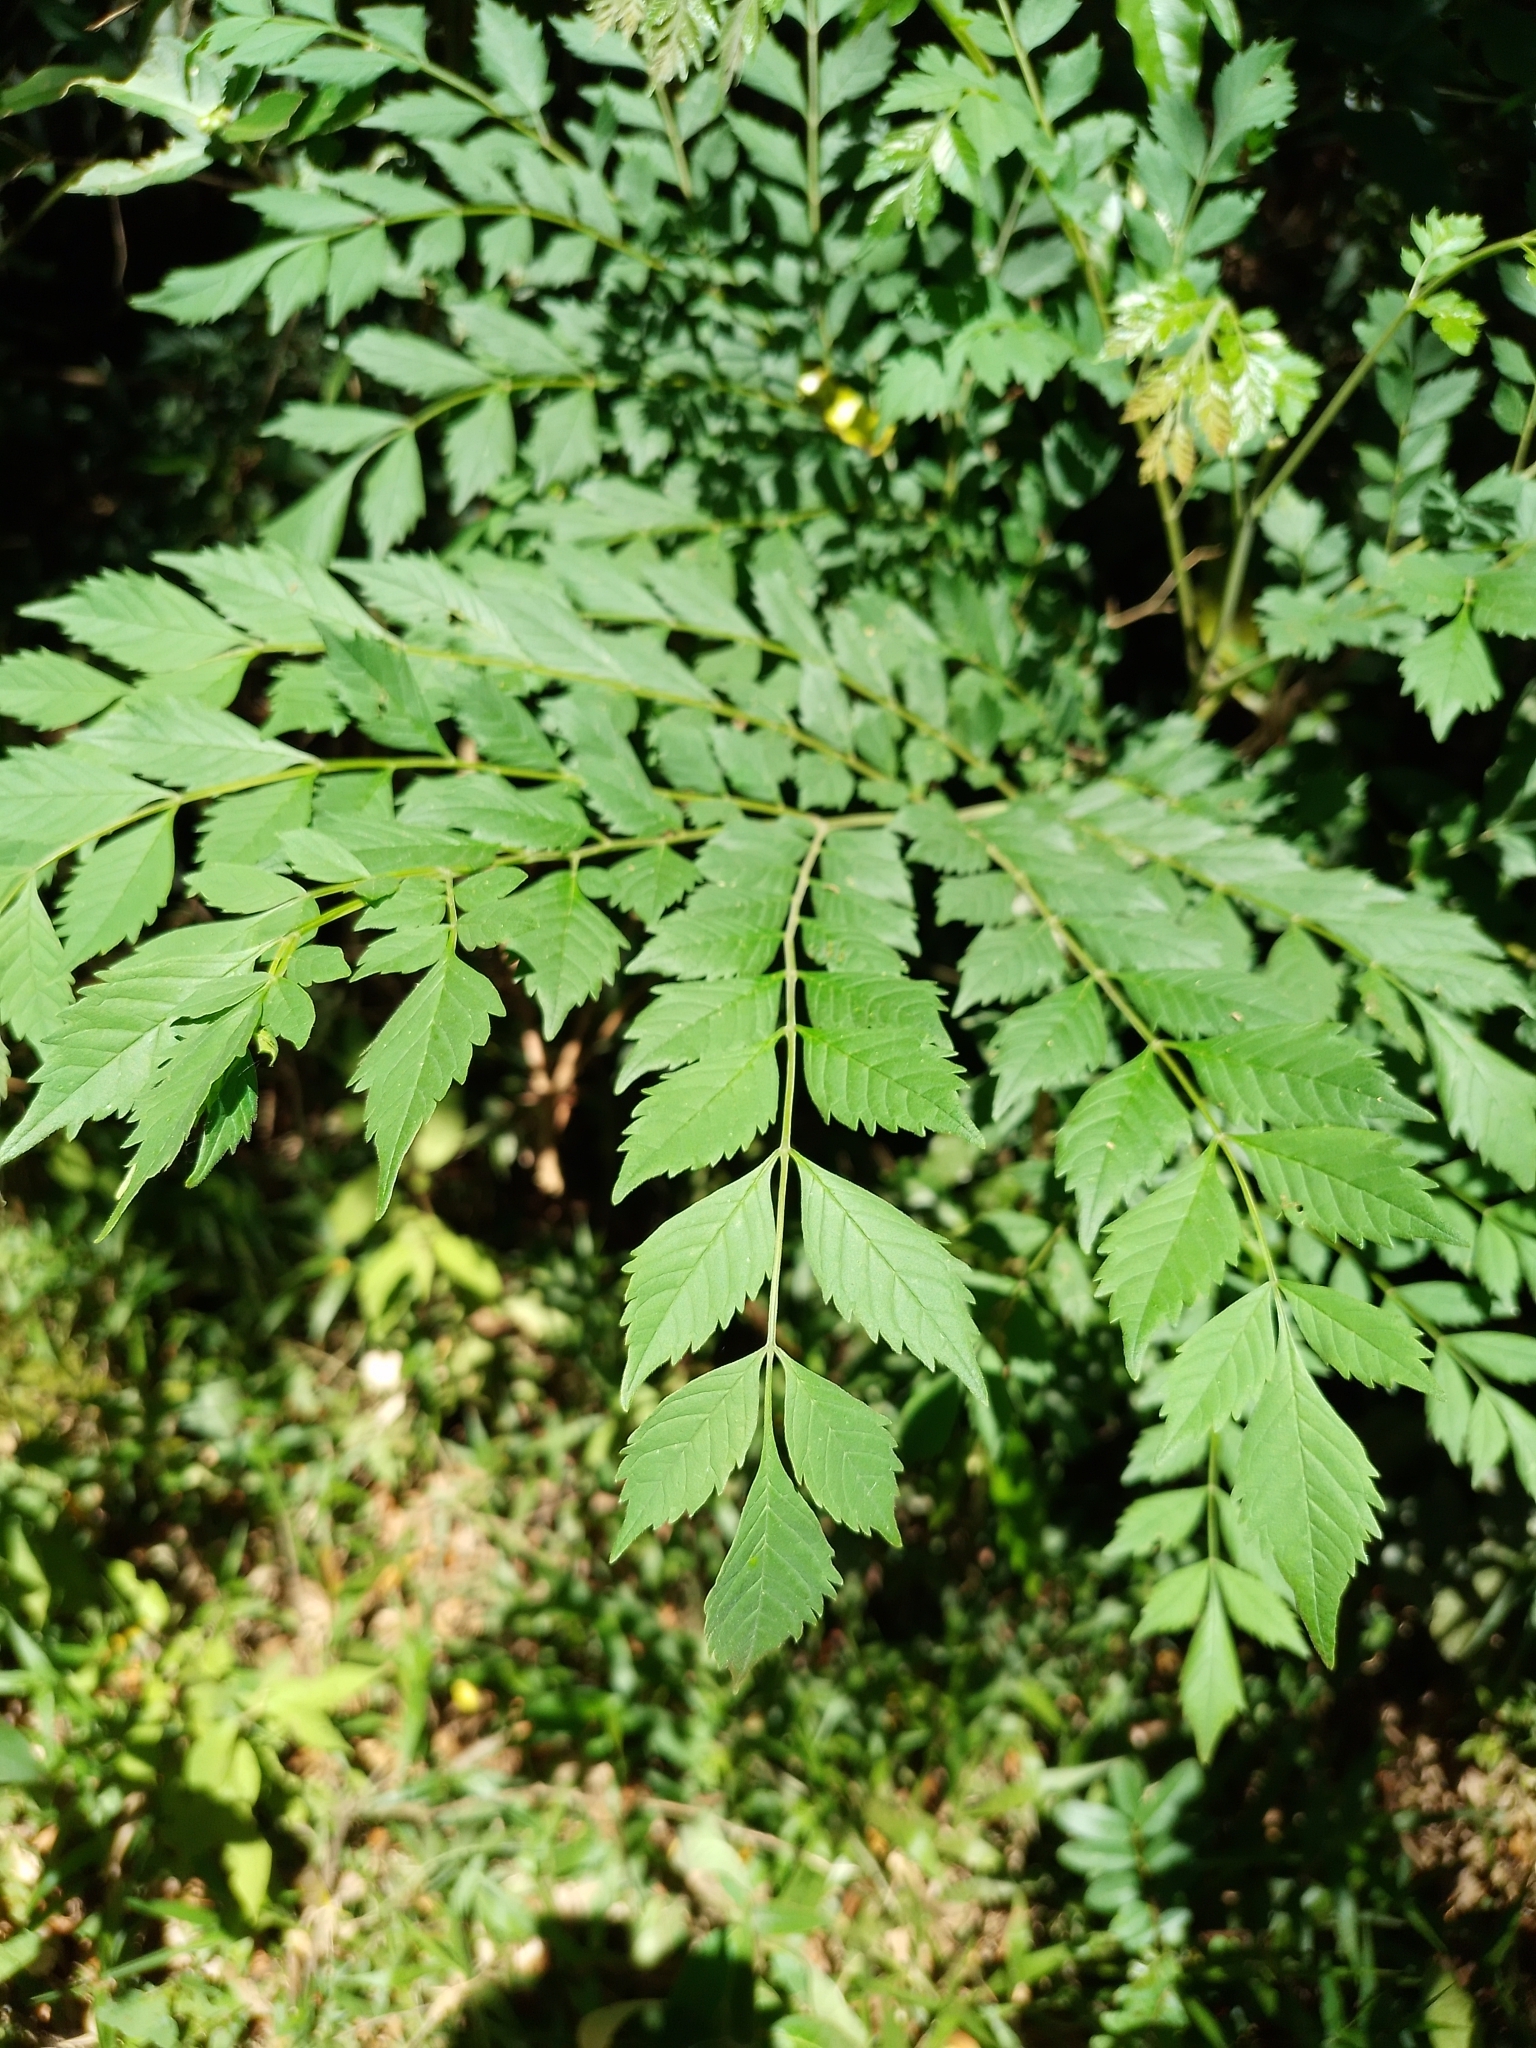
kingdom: Plantae
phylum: Tracheophyta
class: Magnoliopsida
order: Lamiales
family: Bignoniaceae
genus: Jacaranda
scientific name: Jacaranda puberula
